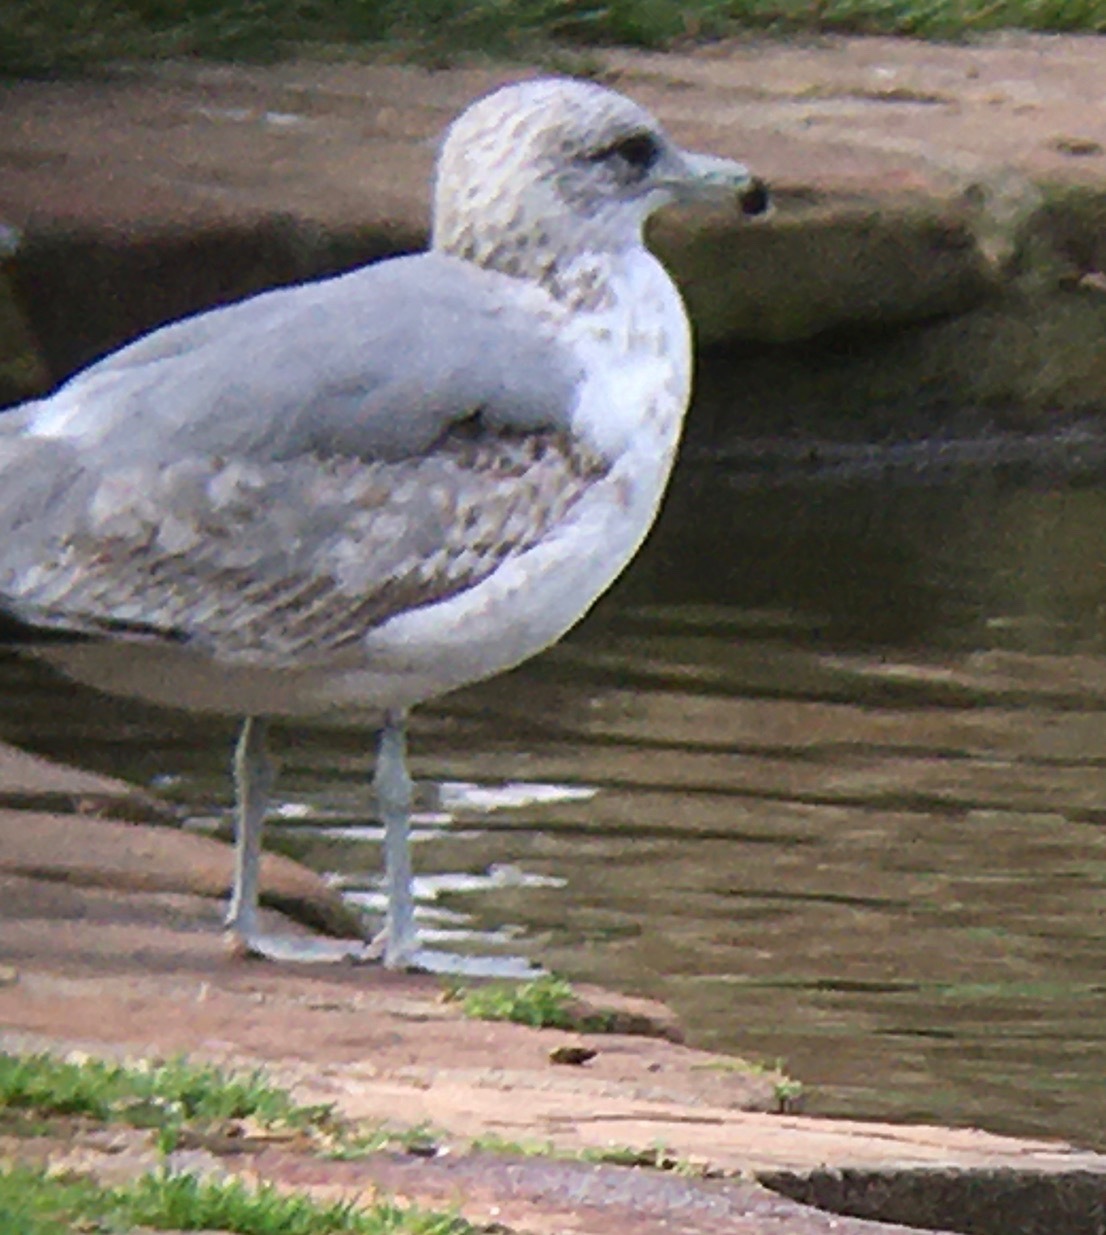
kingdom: Animalia
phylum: Chordata
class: Aves
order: Charadriiformes
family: Laridae
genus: Larus
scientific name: Larus californicus
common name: California gull
